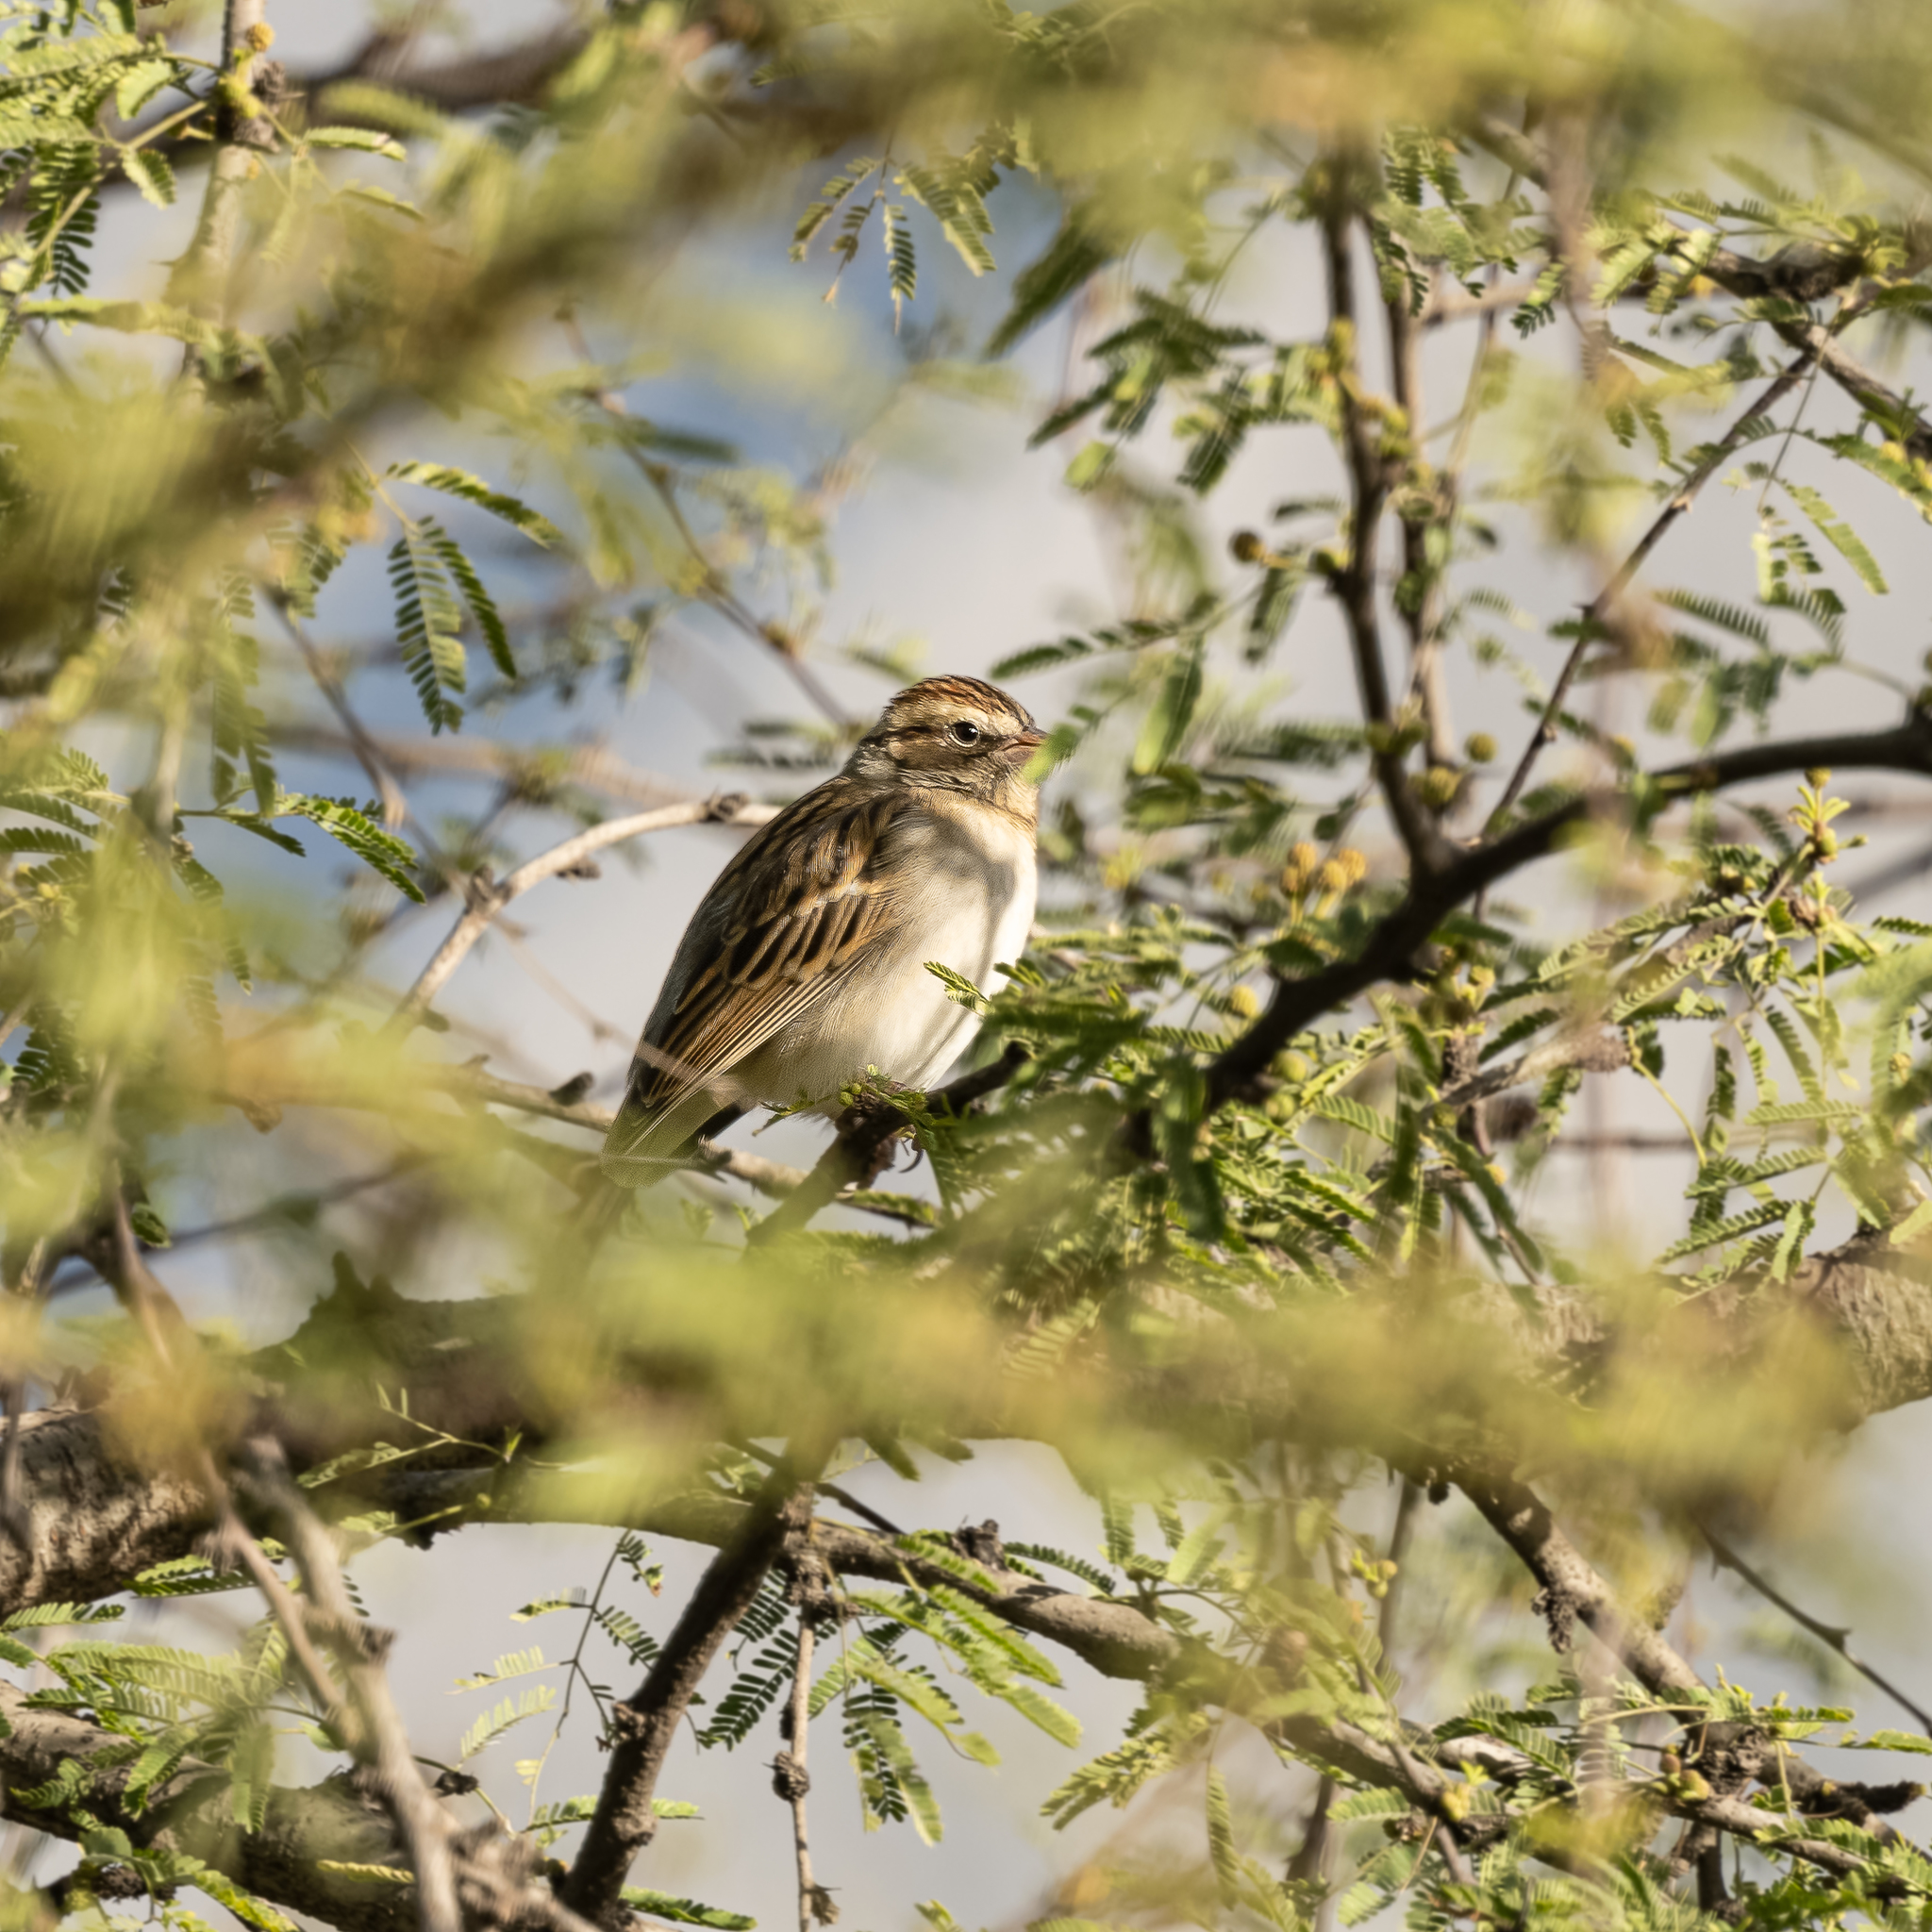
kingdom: Animalia
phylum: Chordata
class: Aves
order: Passeriformes
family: Passerellidae
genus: Spizella
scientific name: Spizella passerina
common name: Chipping sparrow
